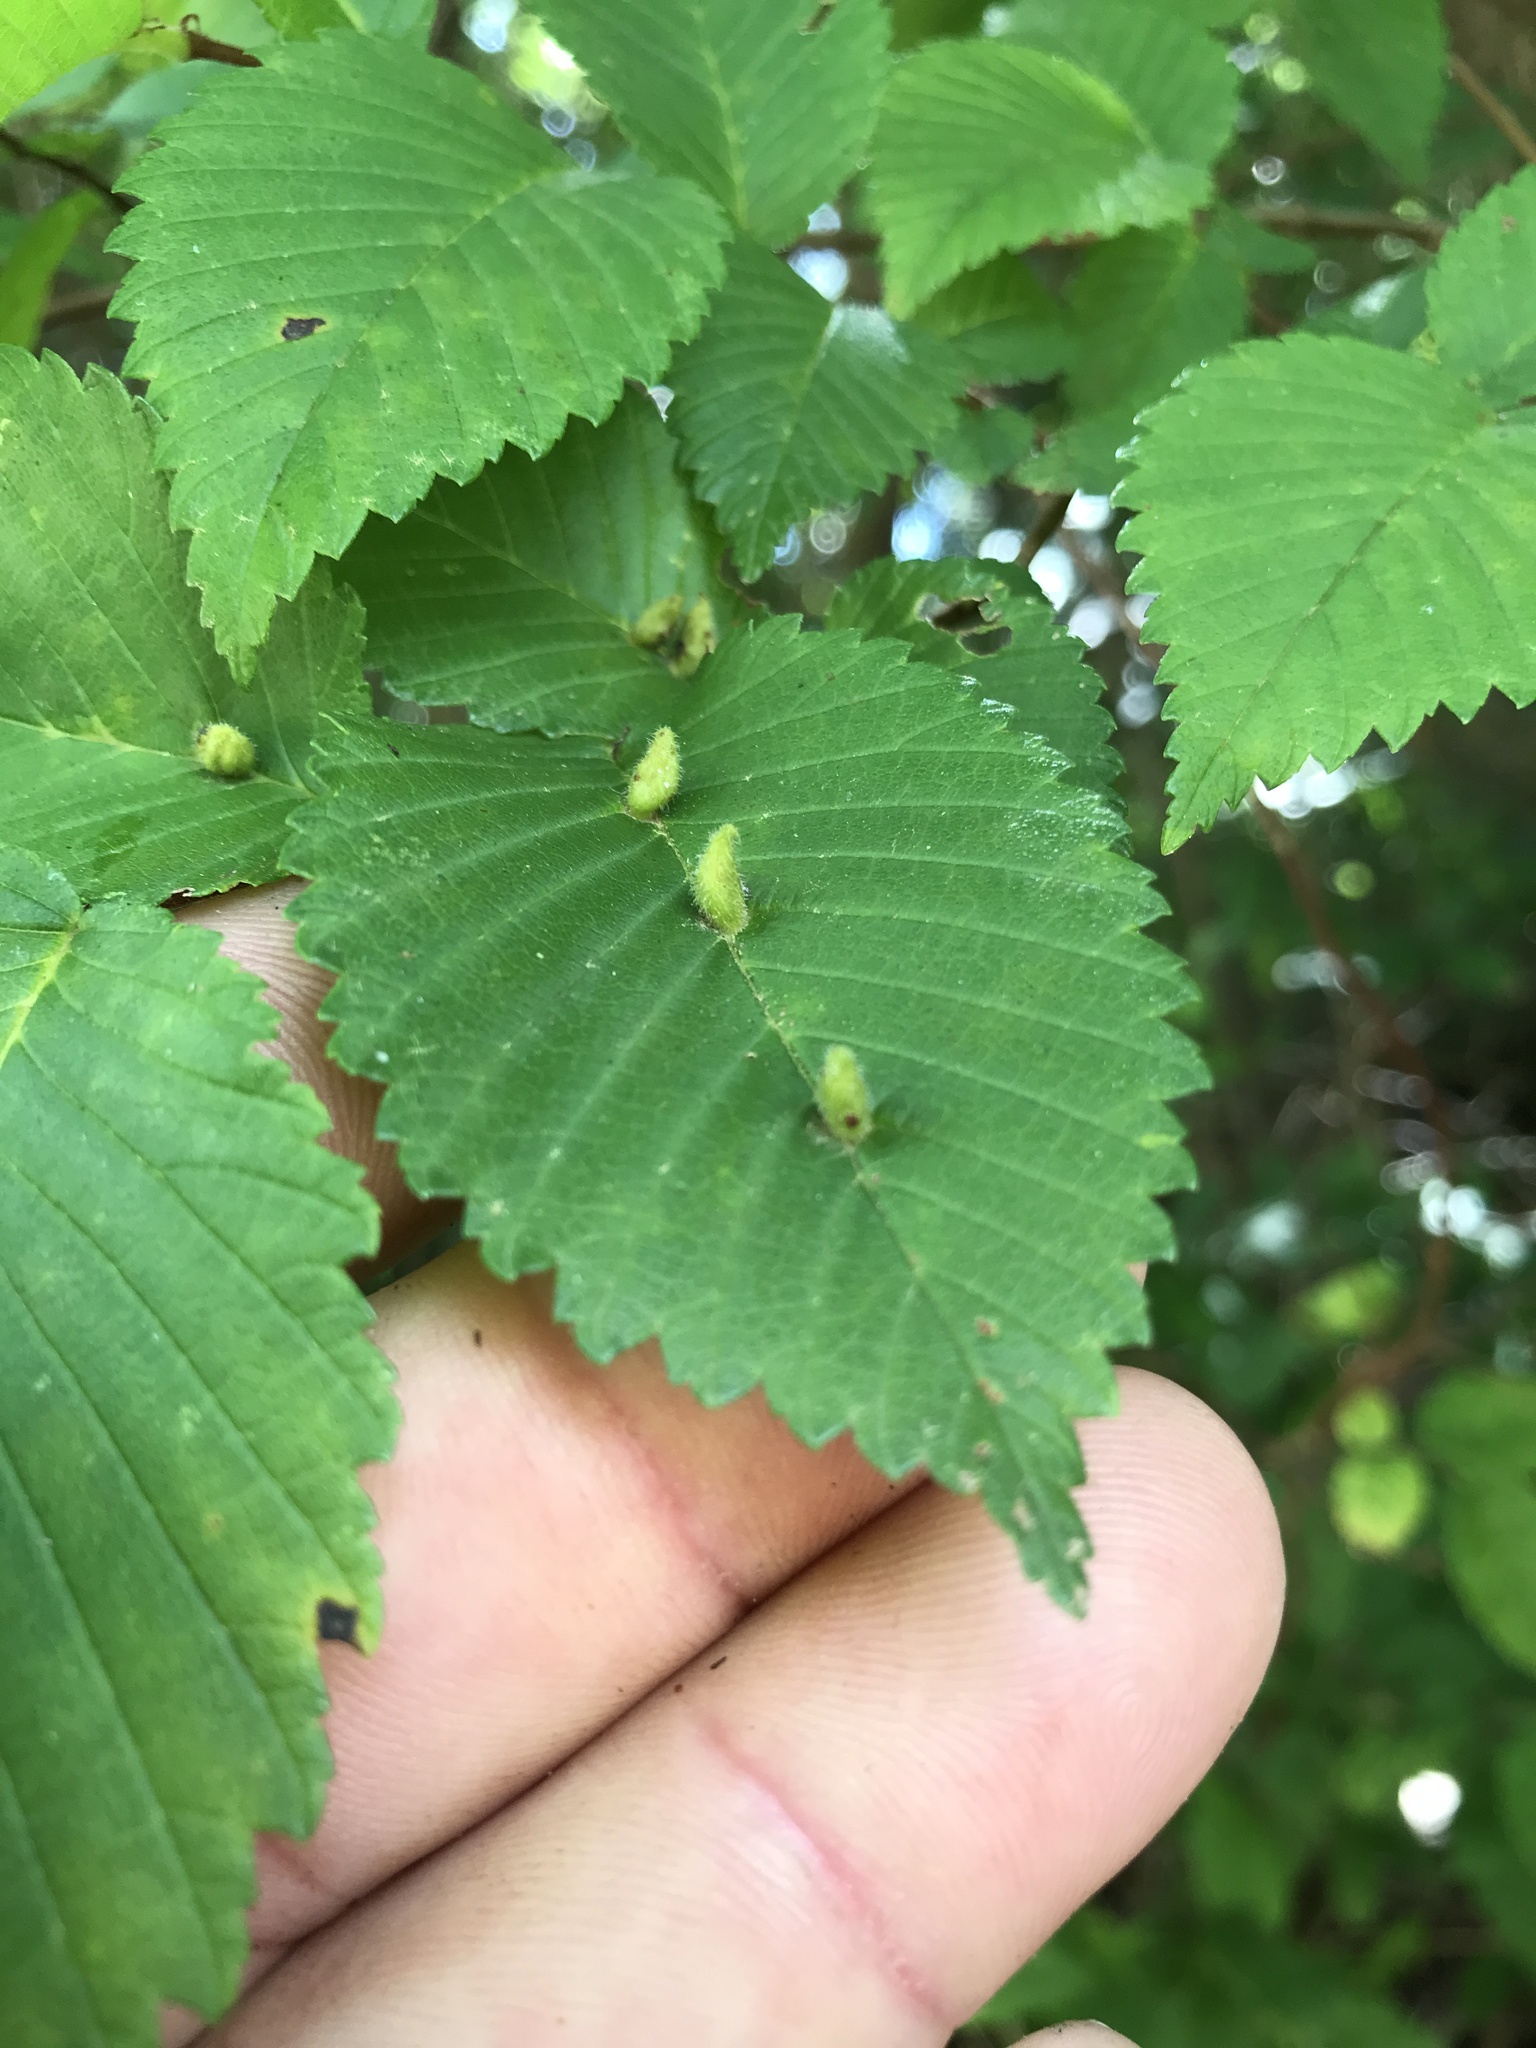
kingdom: Animalia
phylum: Arthropoda
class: Arachnida
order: Trombidiformes
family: Eriophyidae
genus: Aceria
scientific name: Aceria
